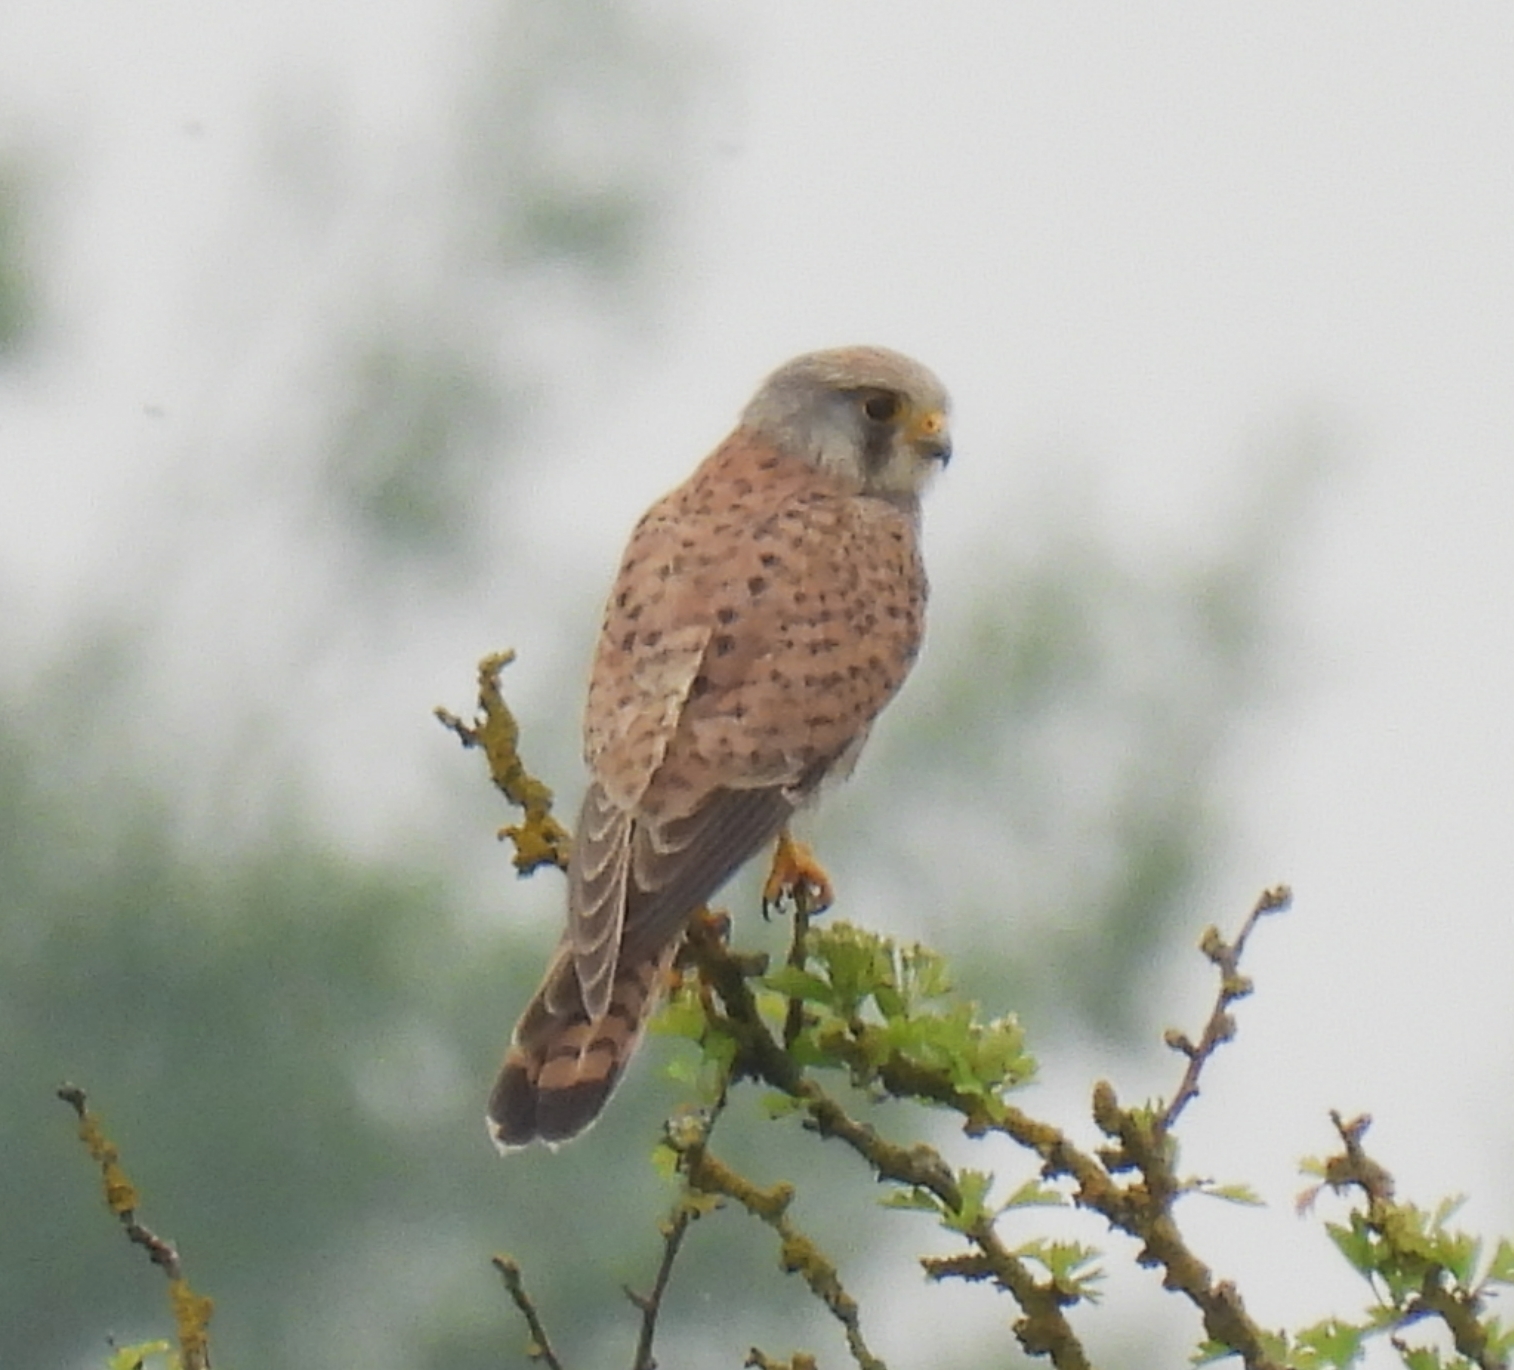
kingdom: Animalia
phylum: Chordata
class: Aves
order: Falconiformes
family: Falconidae
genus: Falco
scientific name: Falco tinnunculus
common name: Common kestrel
